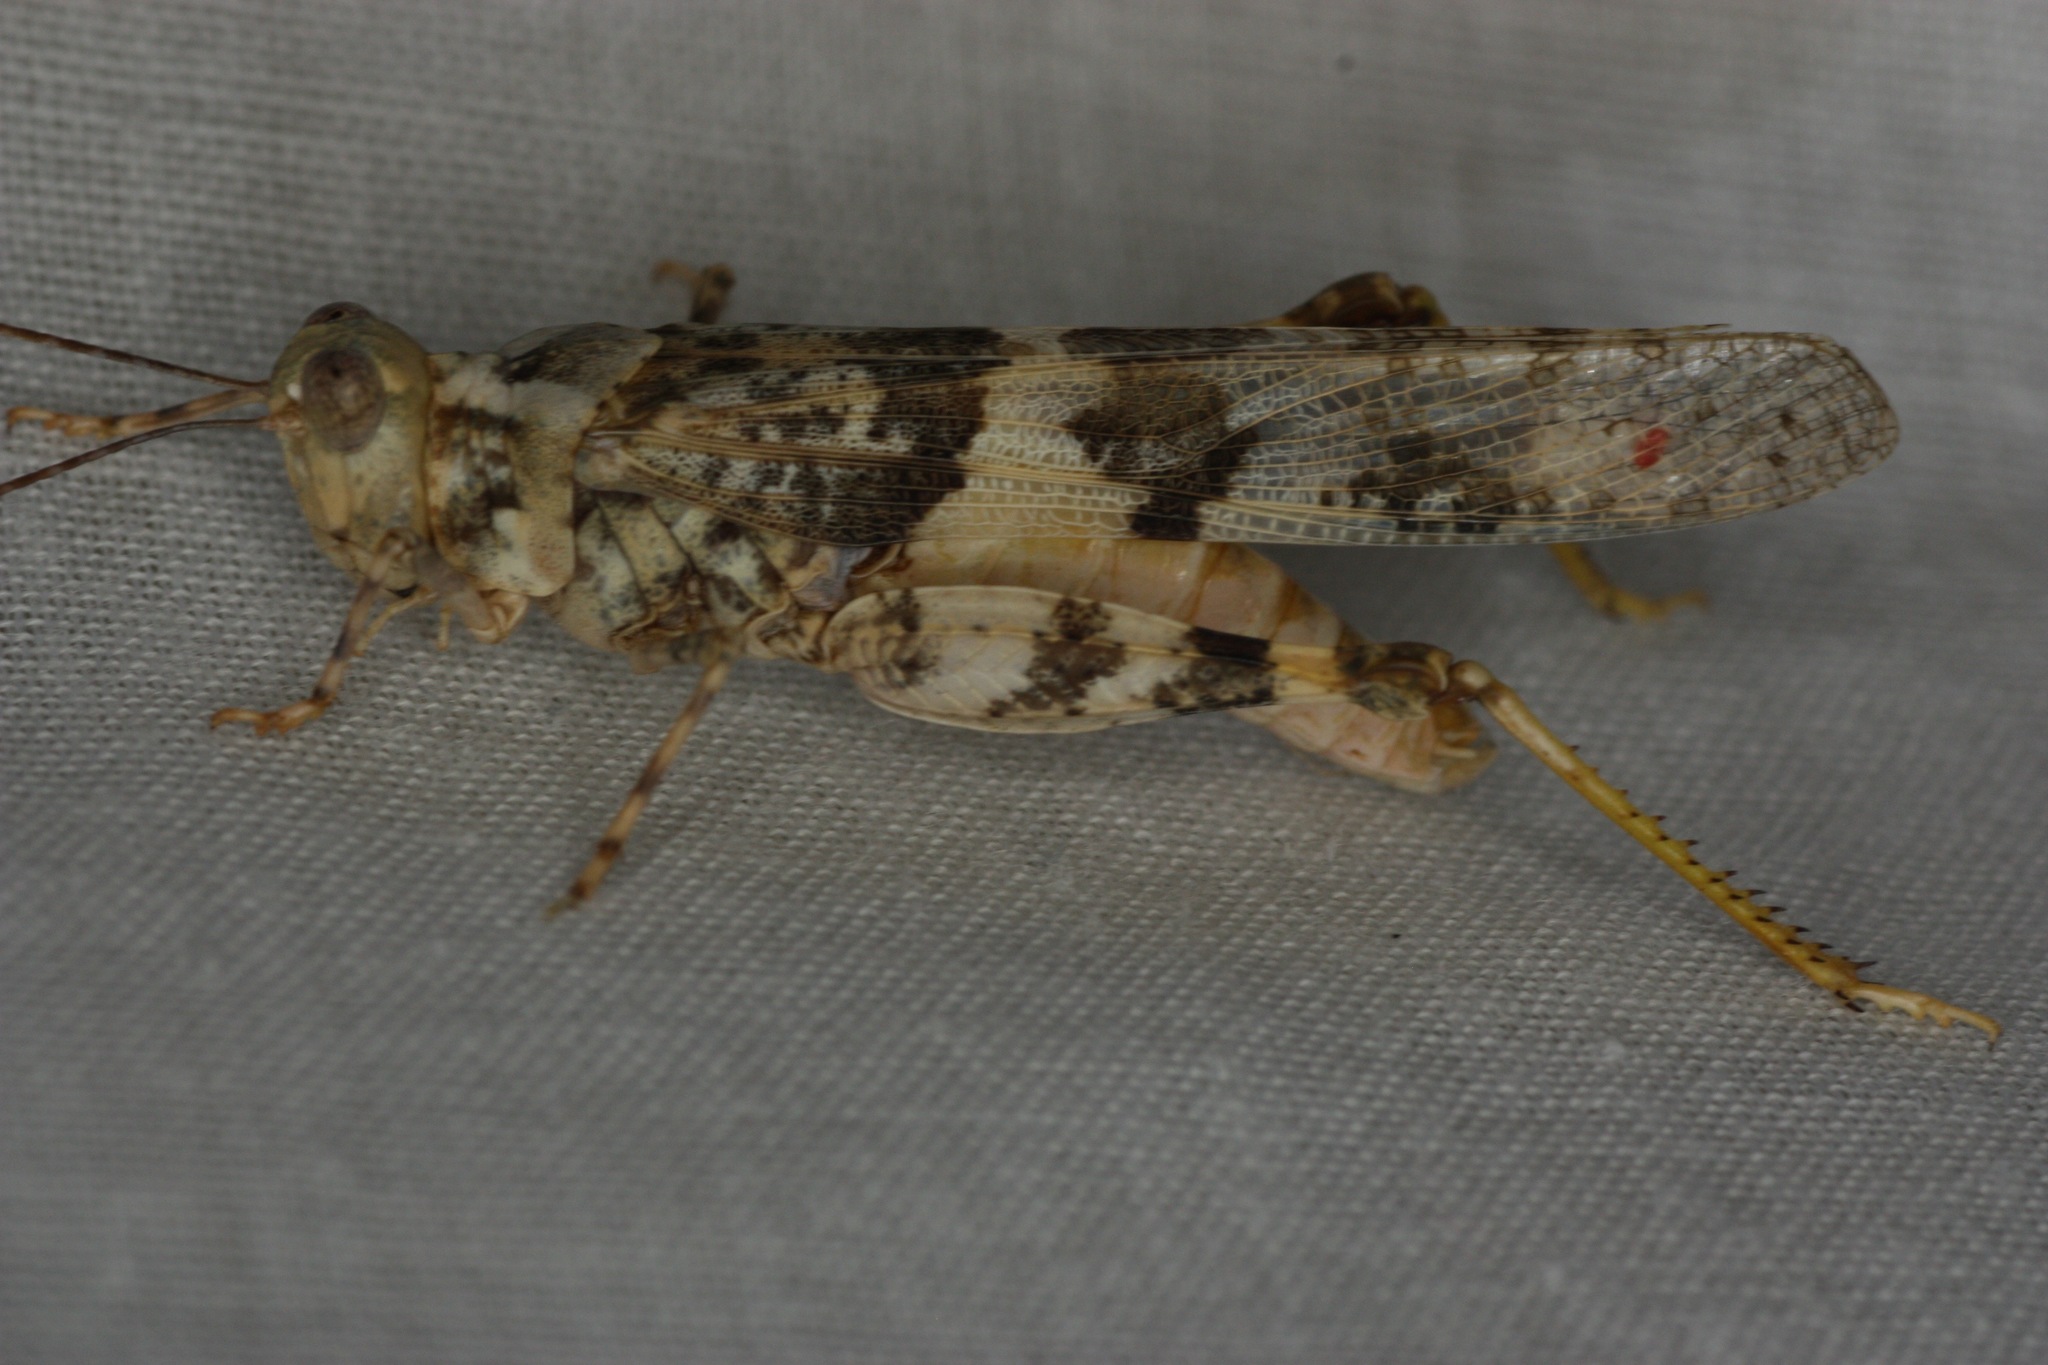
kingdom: Animalia
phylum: Arthropoda
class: Insecta
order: Orthoptera
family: Acrididae
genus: Trimerotropis
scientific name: Trimerotropis pallidipennis
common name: Pallid-winged grasshopper
